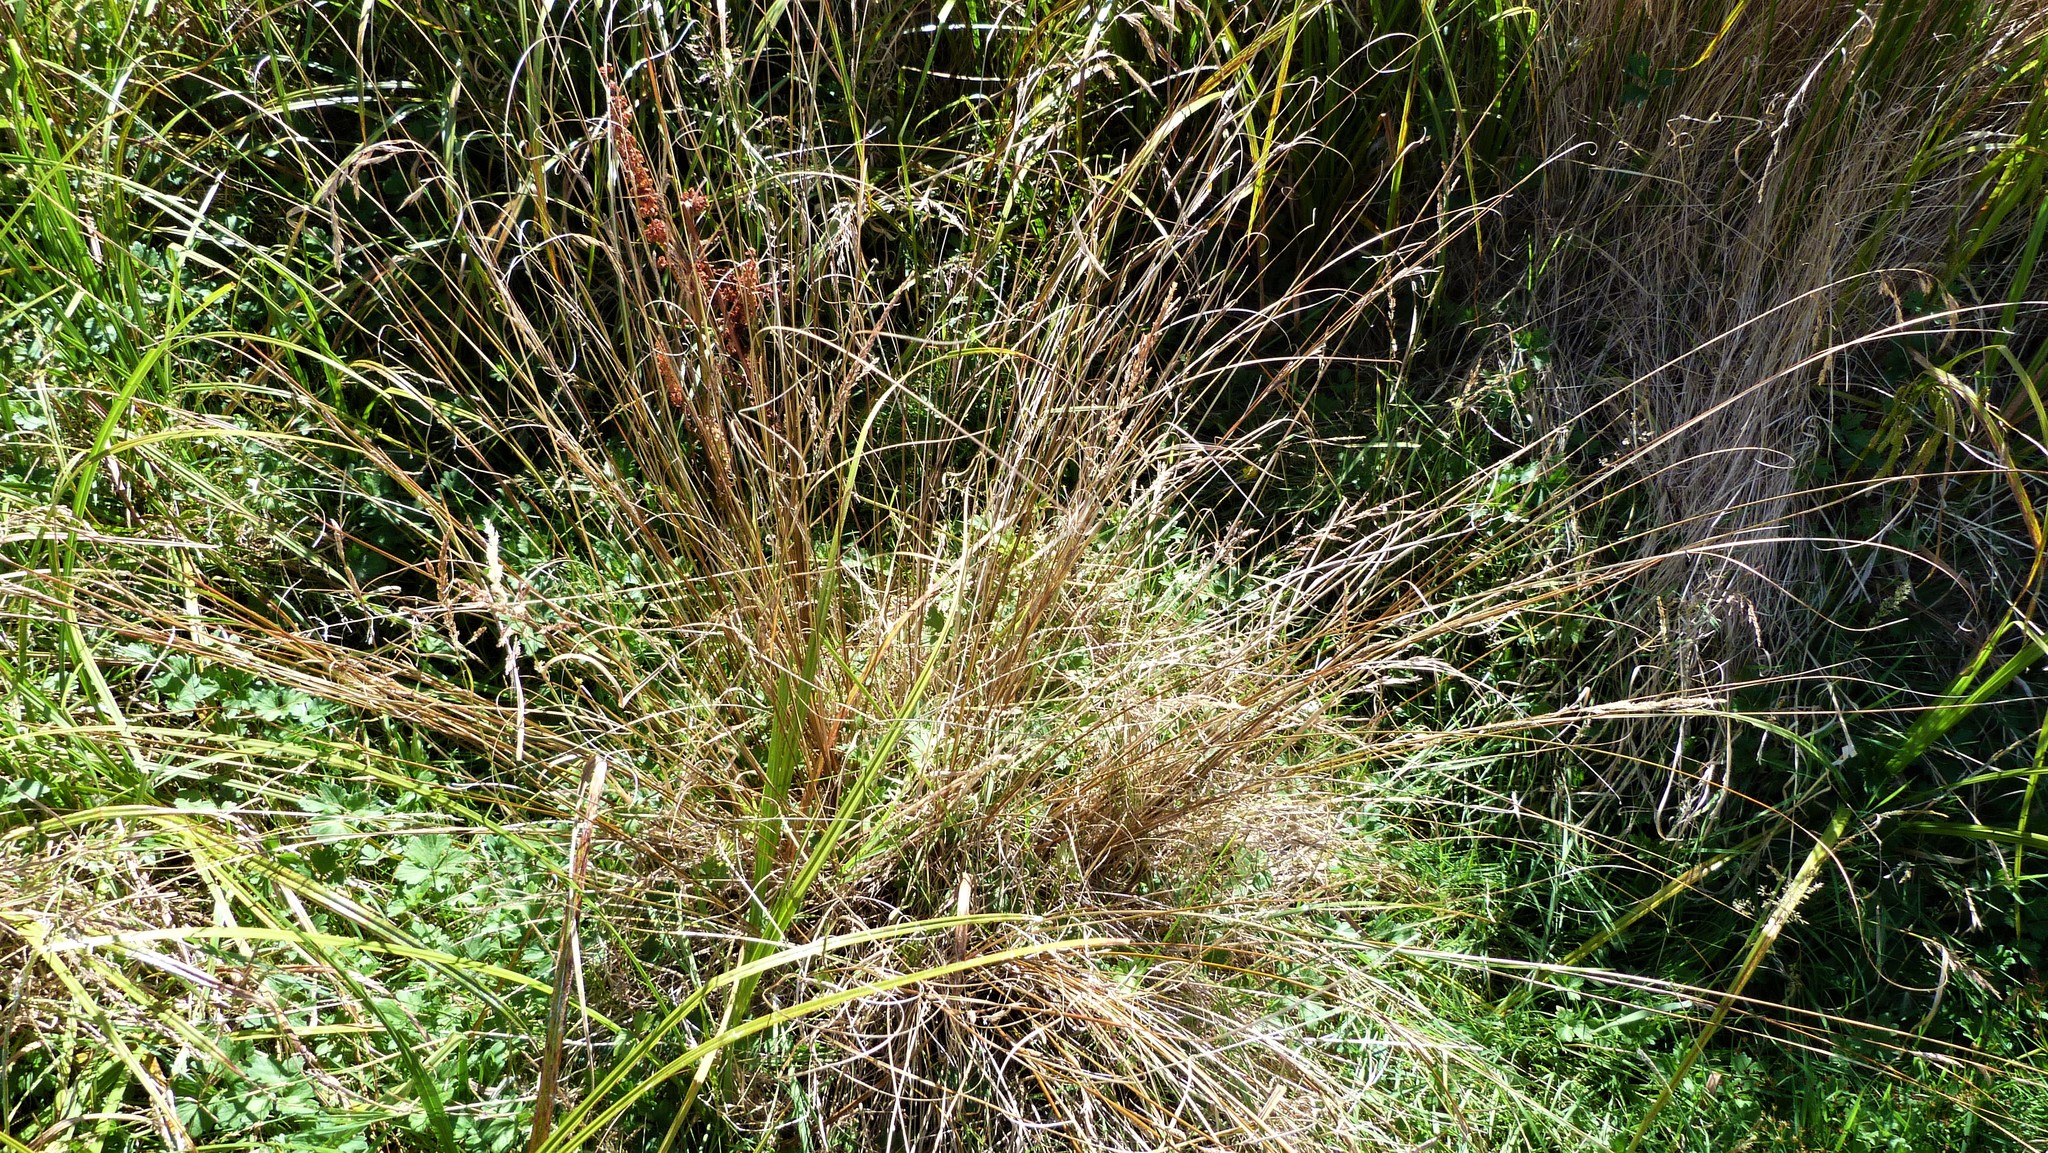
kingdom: Plantae
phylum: Tracheophyta
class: Liliopsida
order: Poales
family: Cyperaceae
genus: Carex
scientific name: Carex petriei
